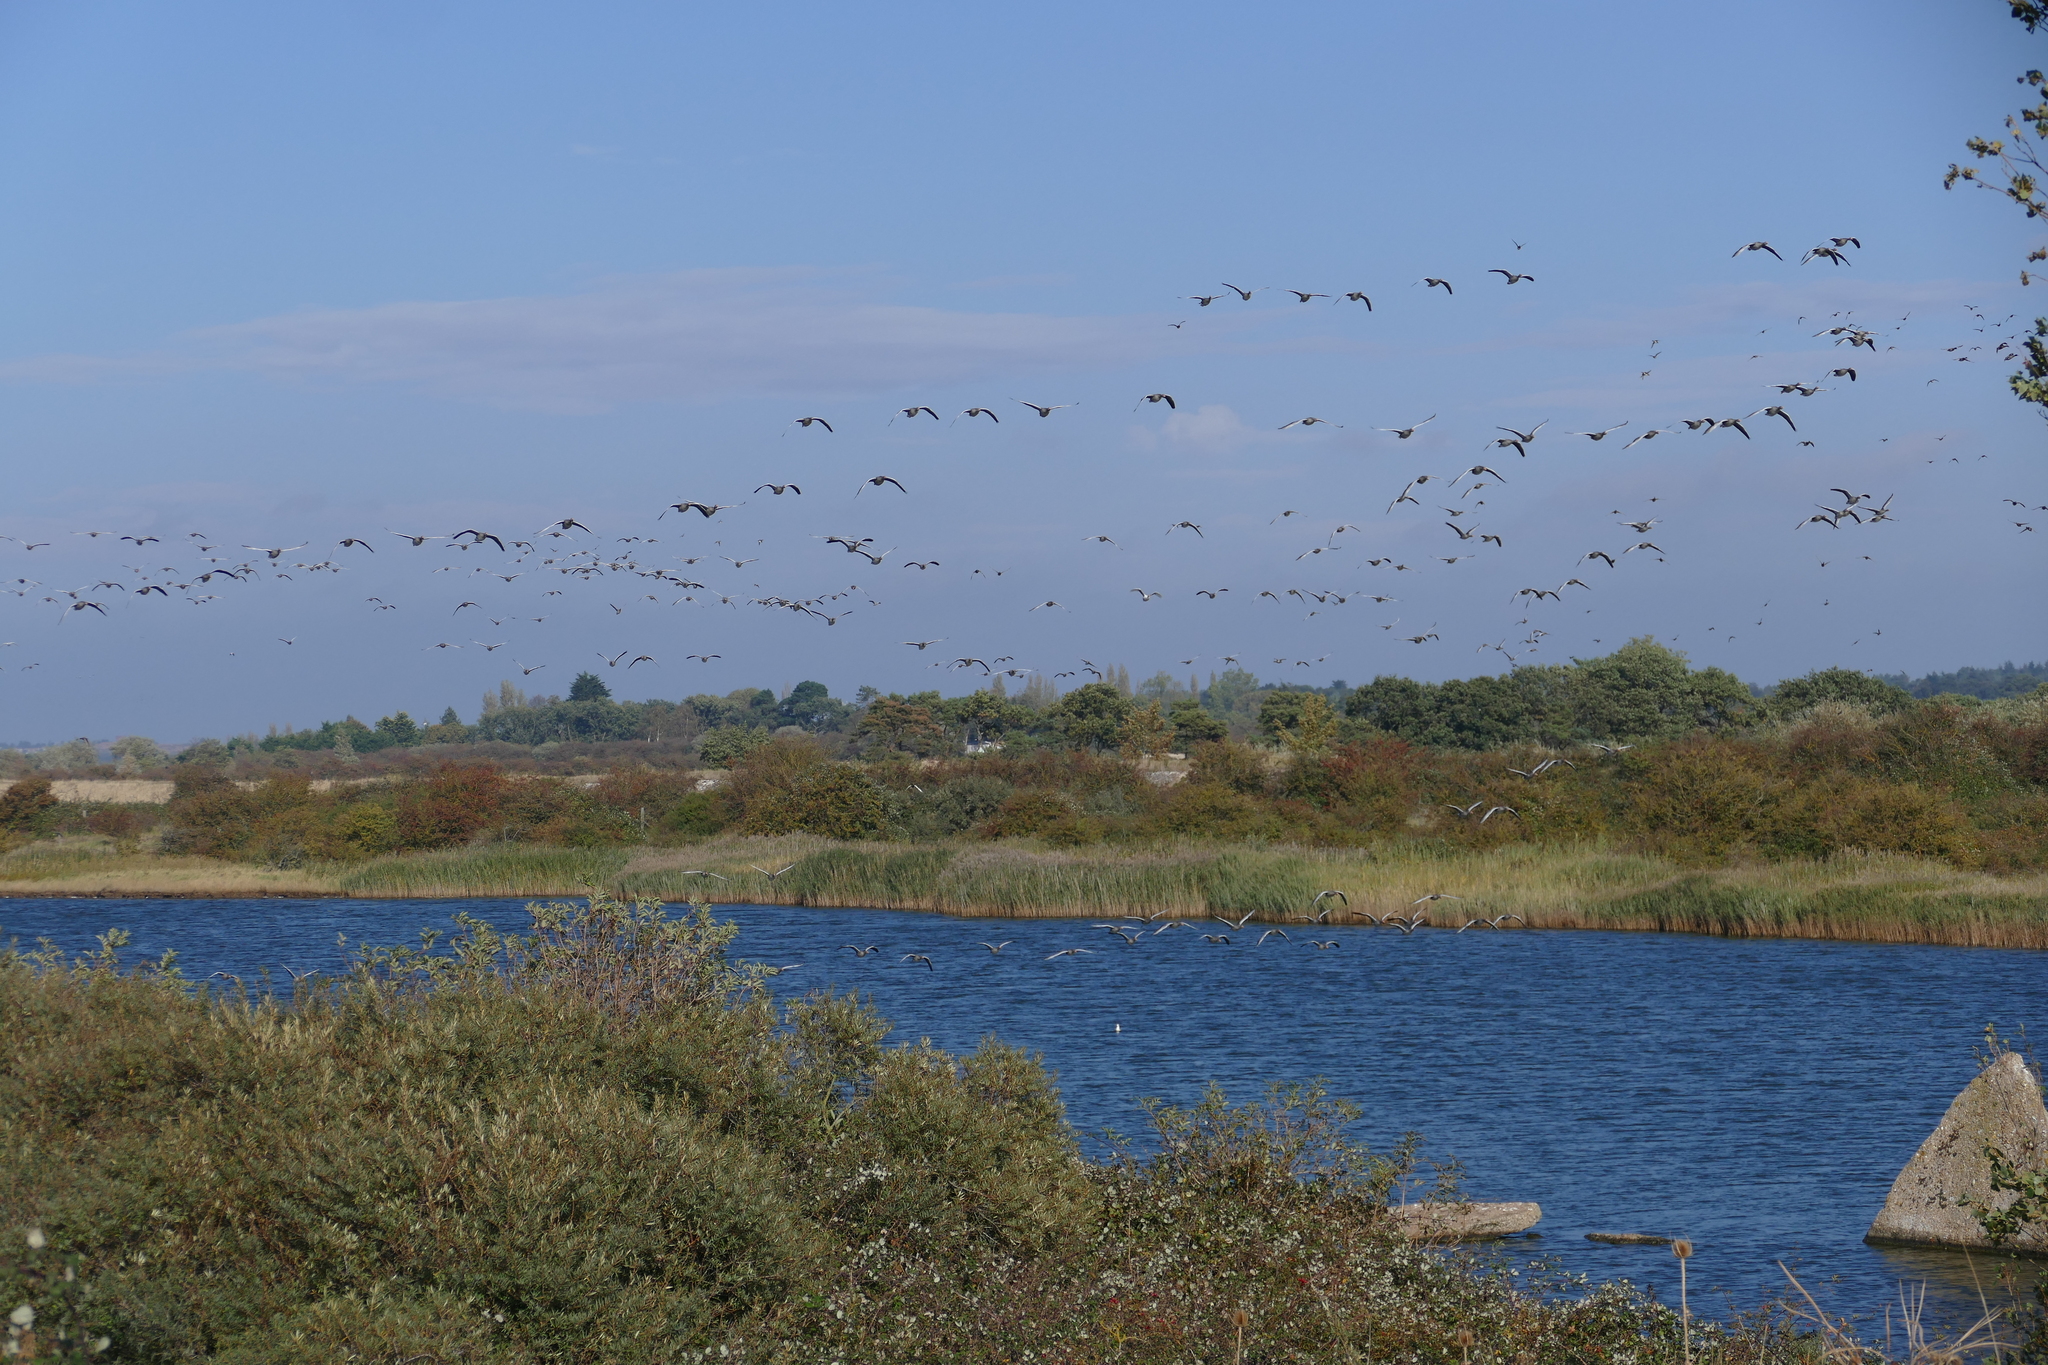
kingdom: Animalia
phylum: Chordata
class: Aves
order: Anseriformes
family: Anatidae
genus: Anser
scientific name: Anser anser
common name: Greylag goose
